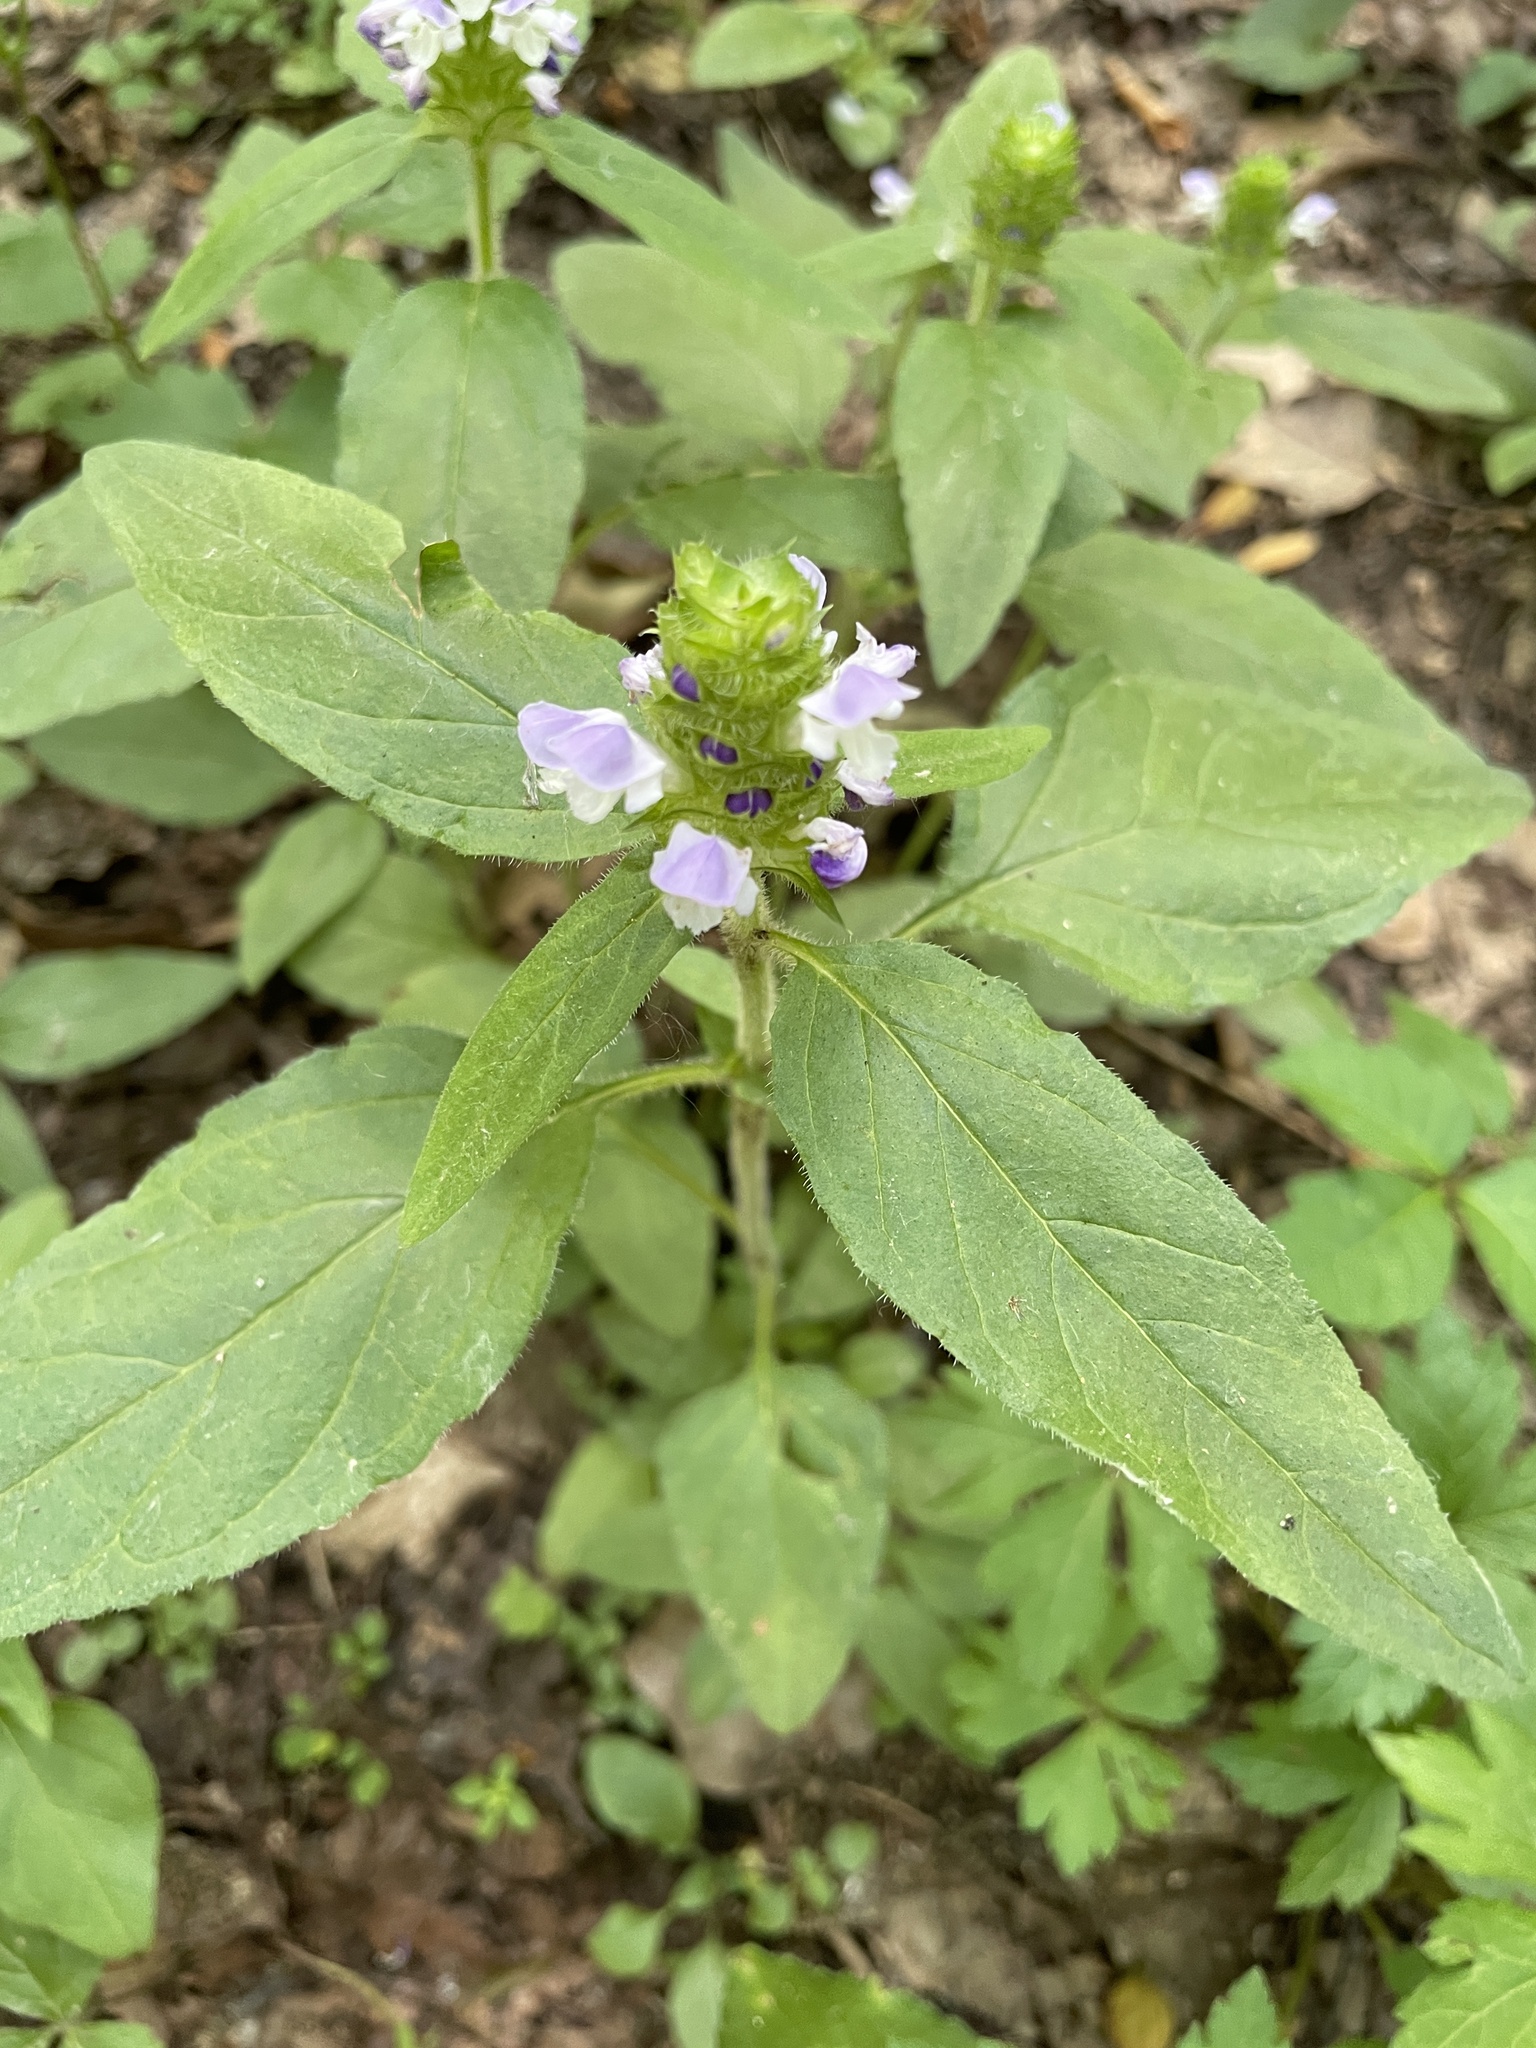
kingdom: Plantae
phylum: Tracheophyta
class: Magnoliopsida
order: Lamiales
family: Lamiaceae
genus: Prunella
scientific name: Prunella vulgaris
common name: Heal-all
